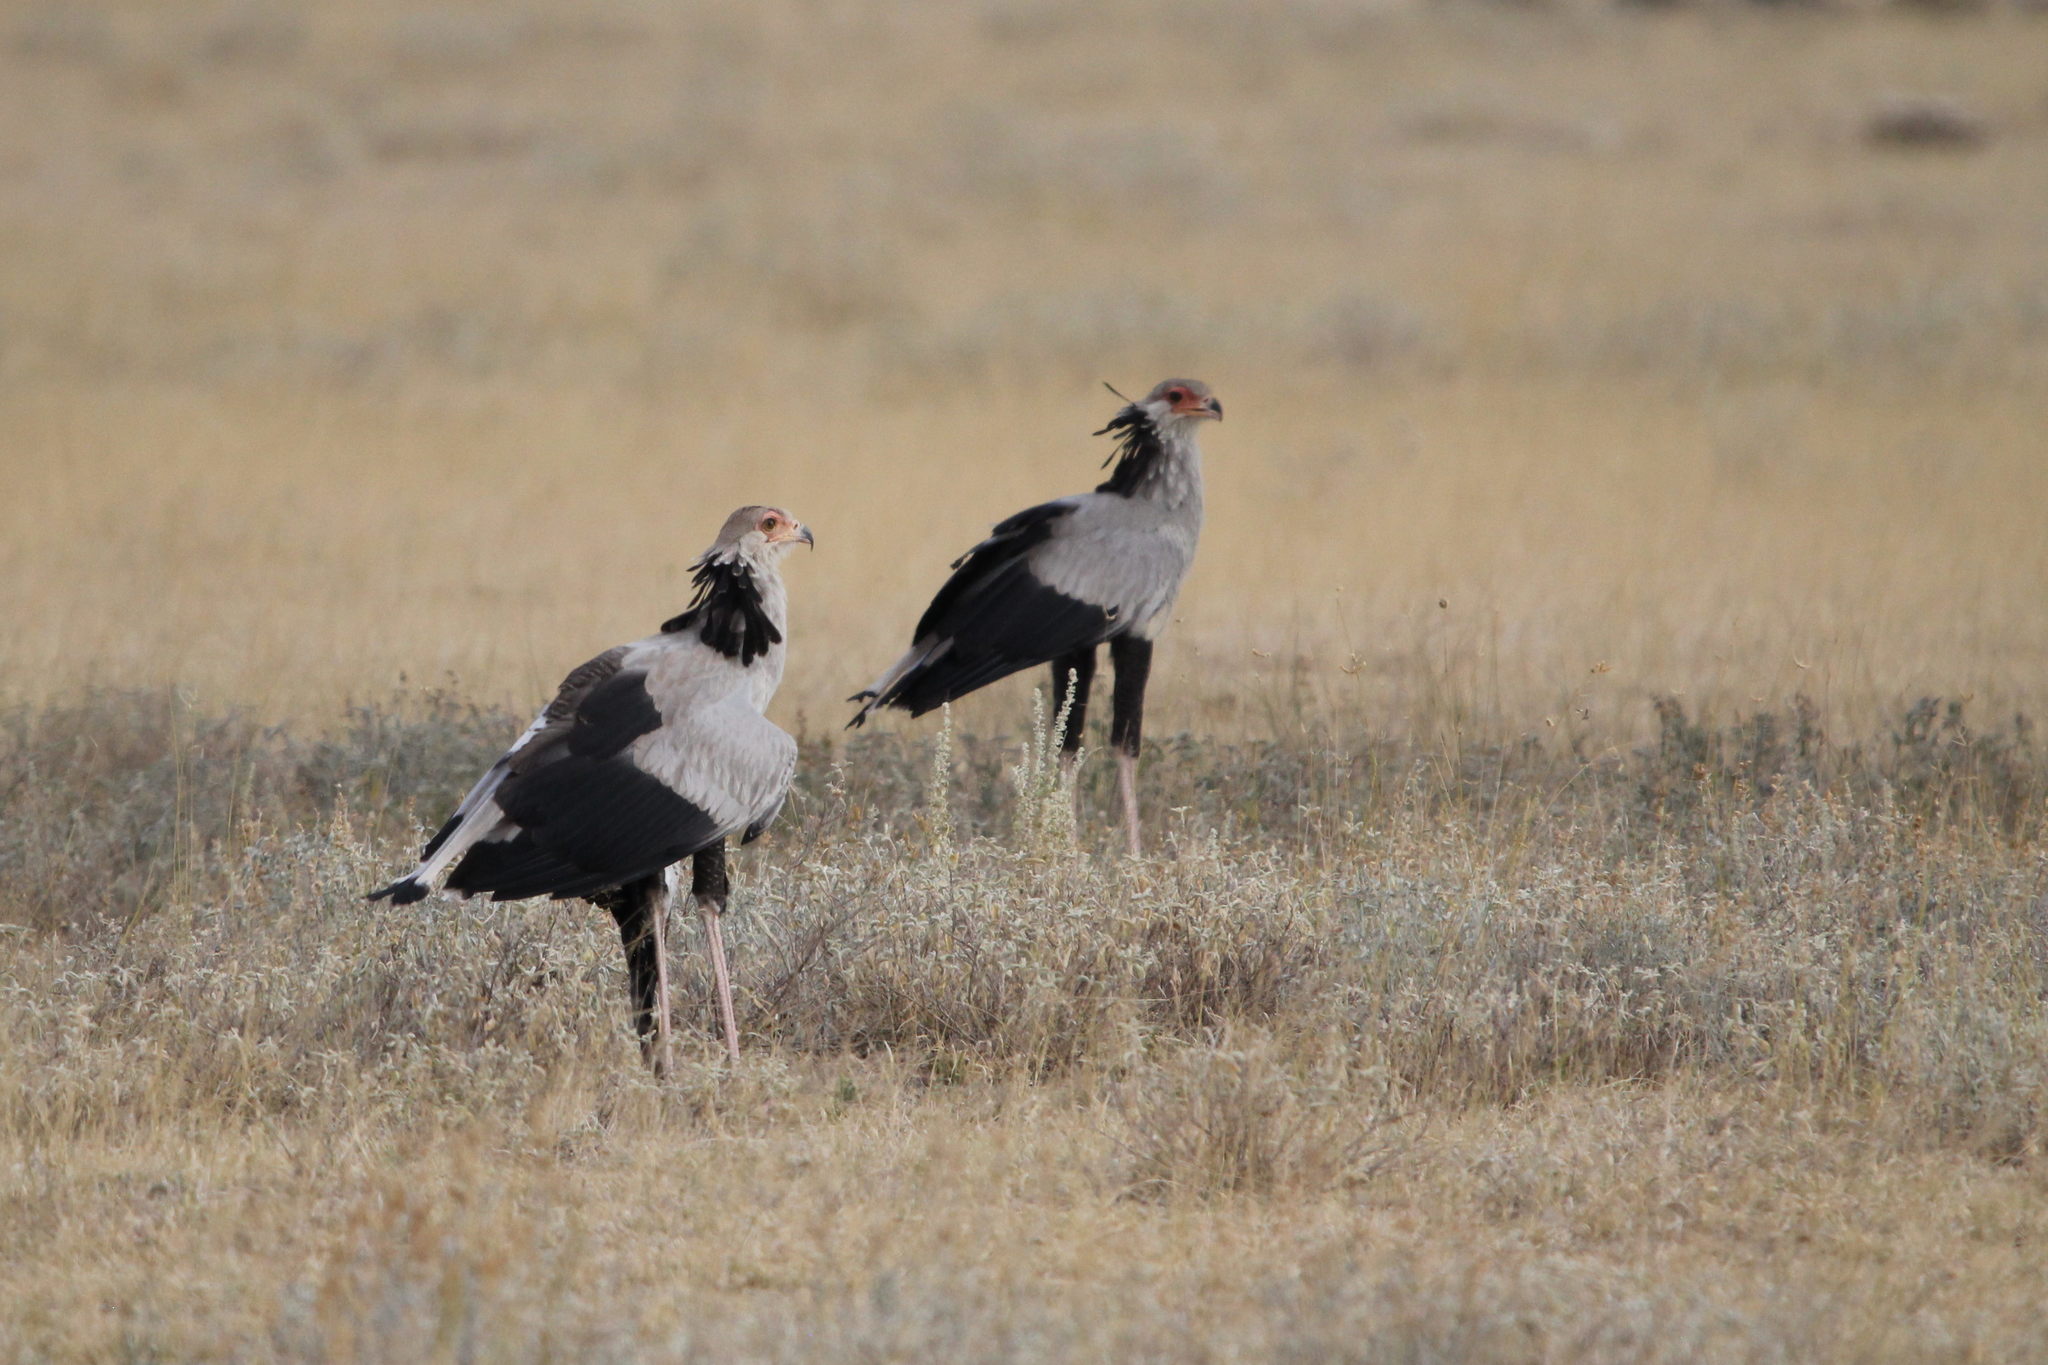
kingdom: Animalia
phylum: Chordata
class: Aves
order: Accipitriformes
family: Sagittariidae
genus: Sagittarius
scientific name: Sagittarius serpentarius
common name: Secretarybird
